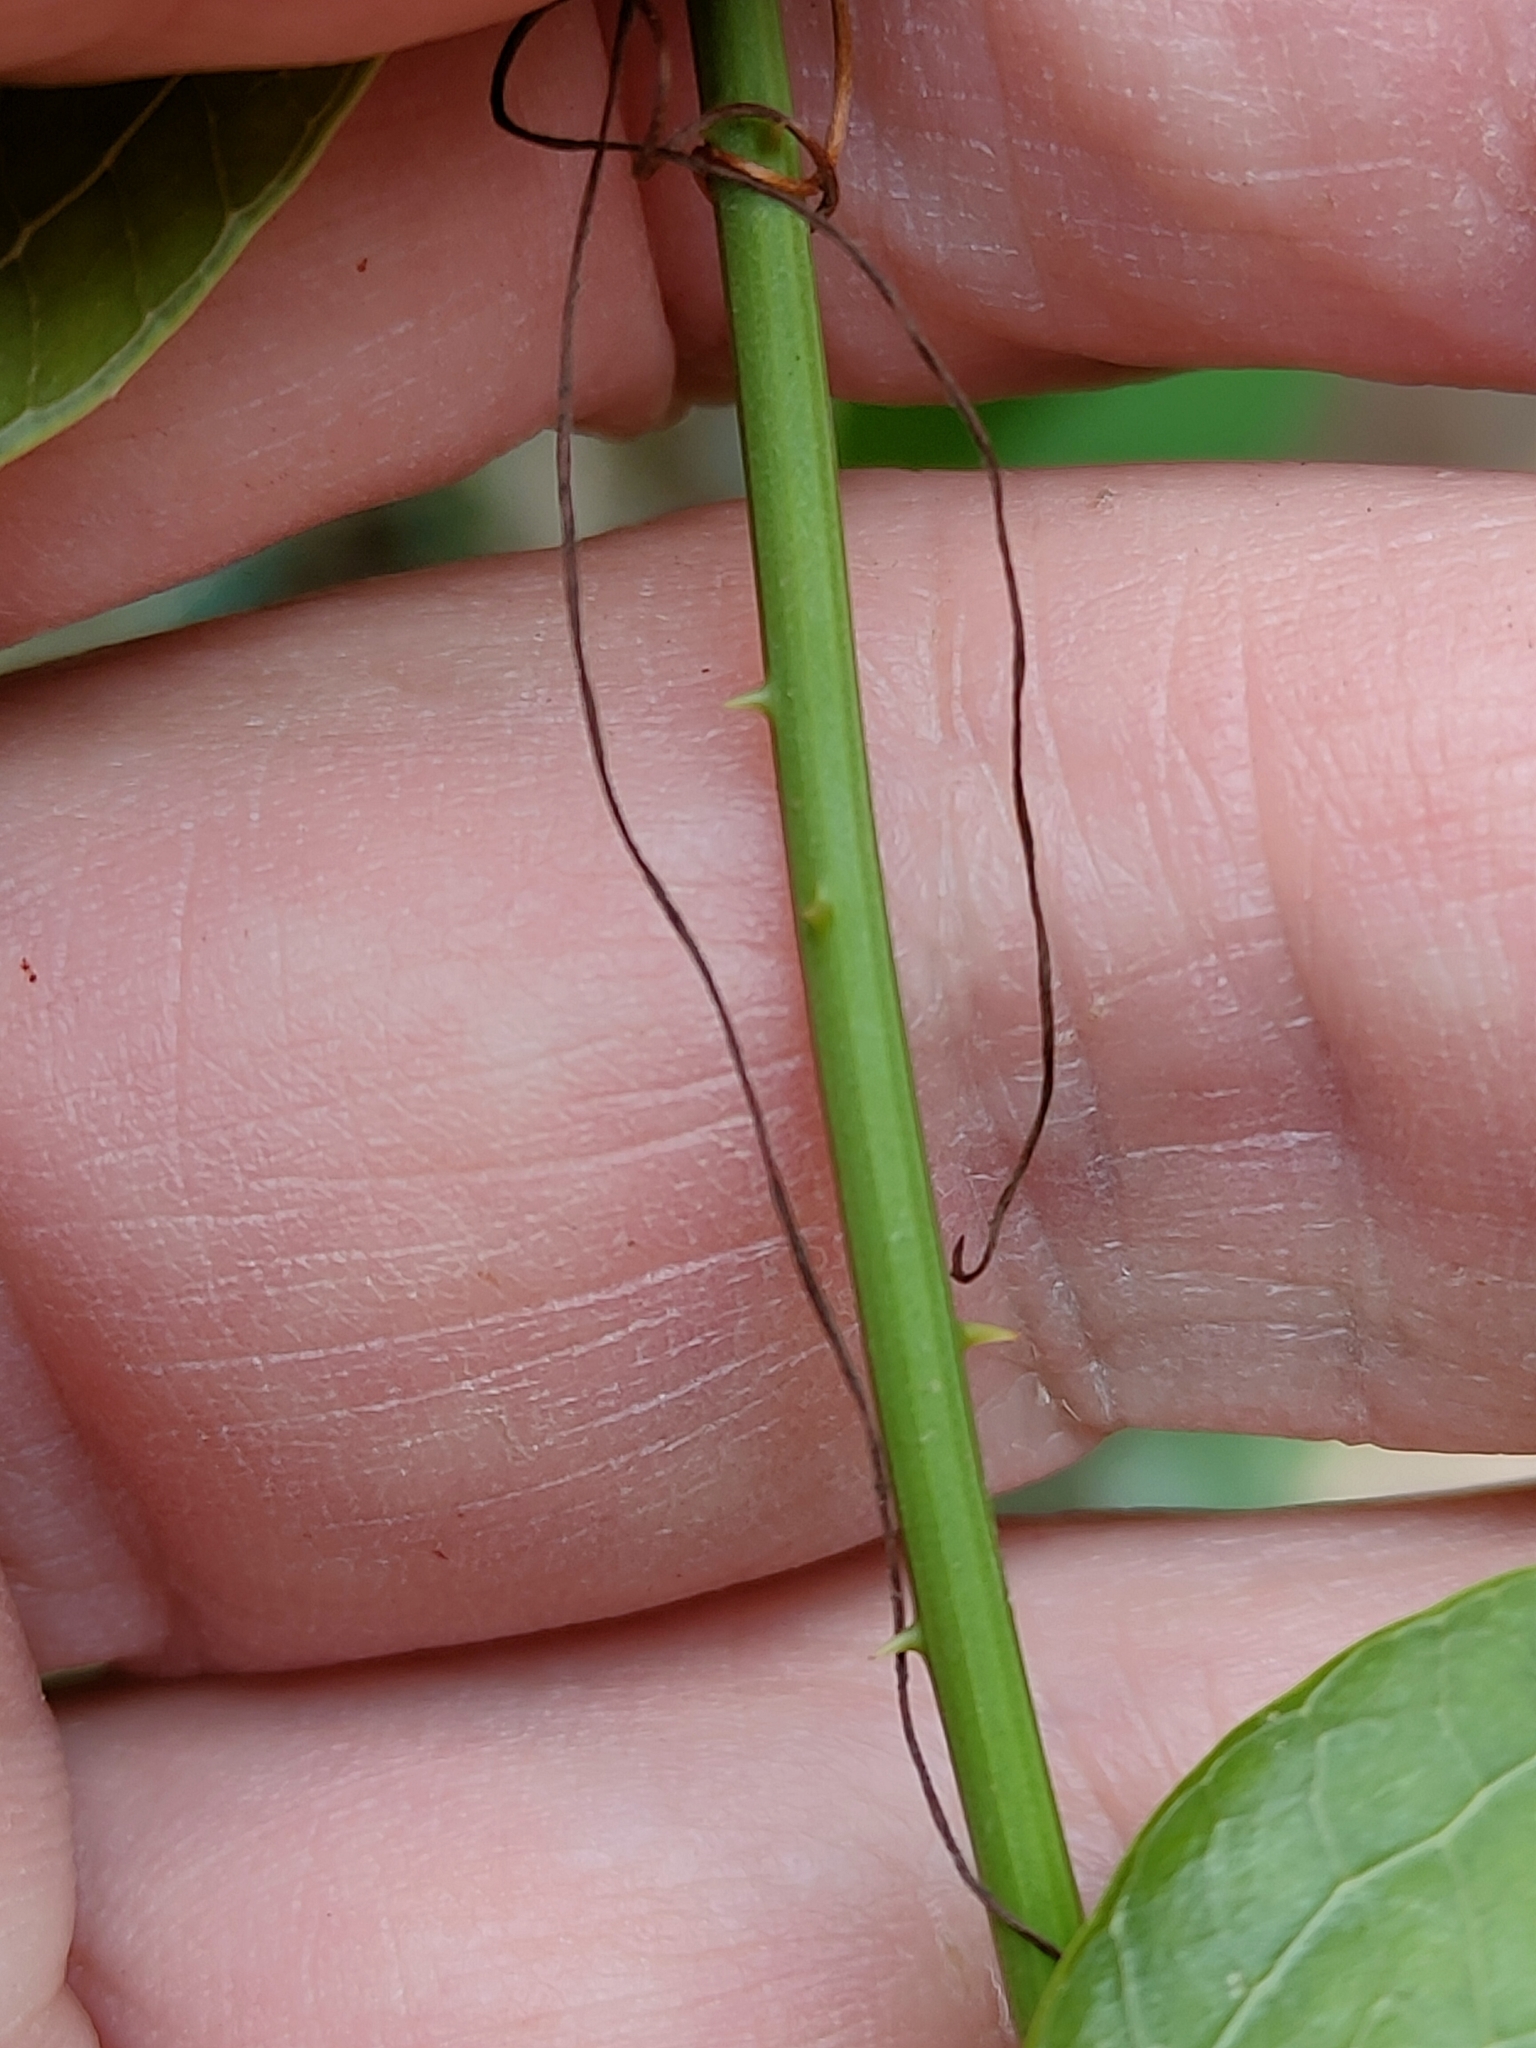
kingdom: Plantae
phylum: Tracheophyta
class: Liliopsida
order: Liliales
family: Smilacaceae
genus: Smilax
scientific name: Smilax australis
